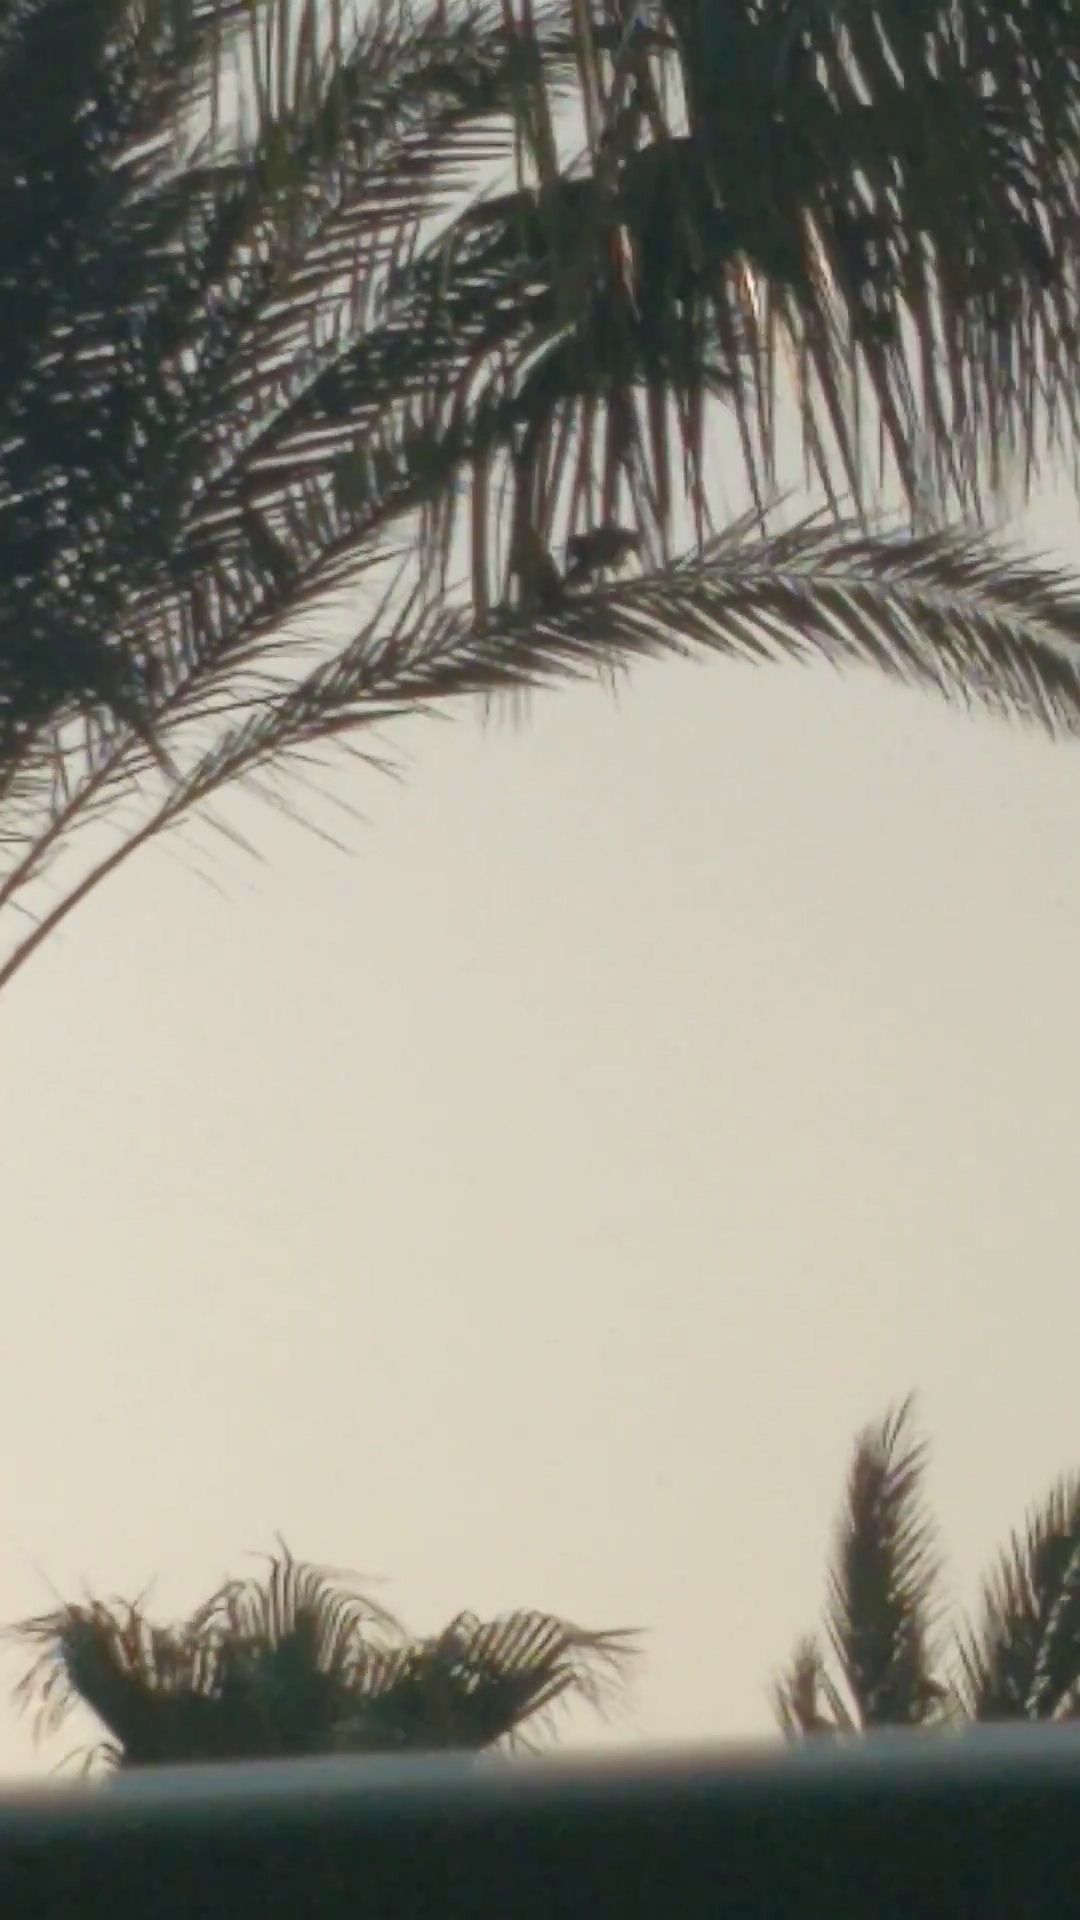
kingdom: Animalia
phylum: Chordata
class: Aves
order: Passeriformes
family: Corvidae
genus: Corvus
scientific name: Corvus cornix
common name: Hooded crow
